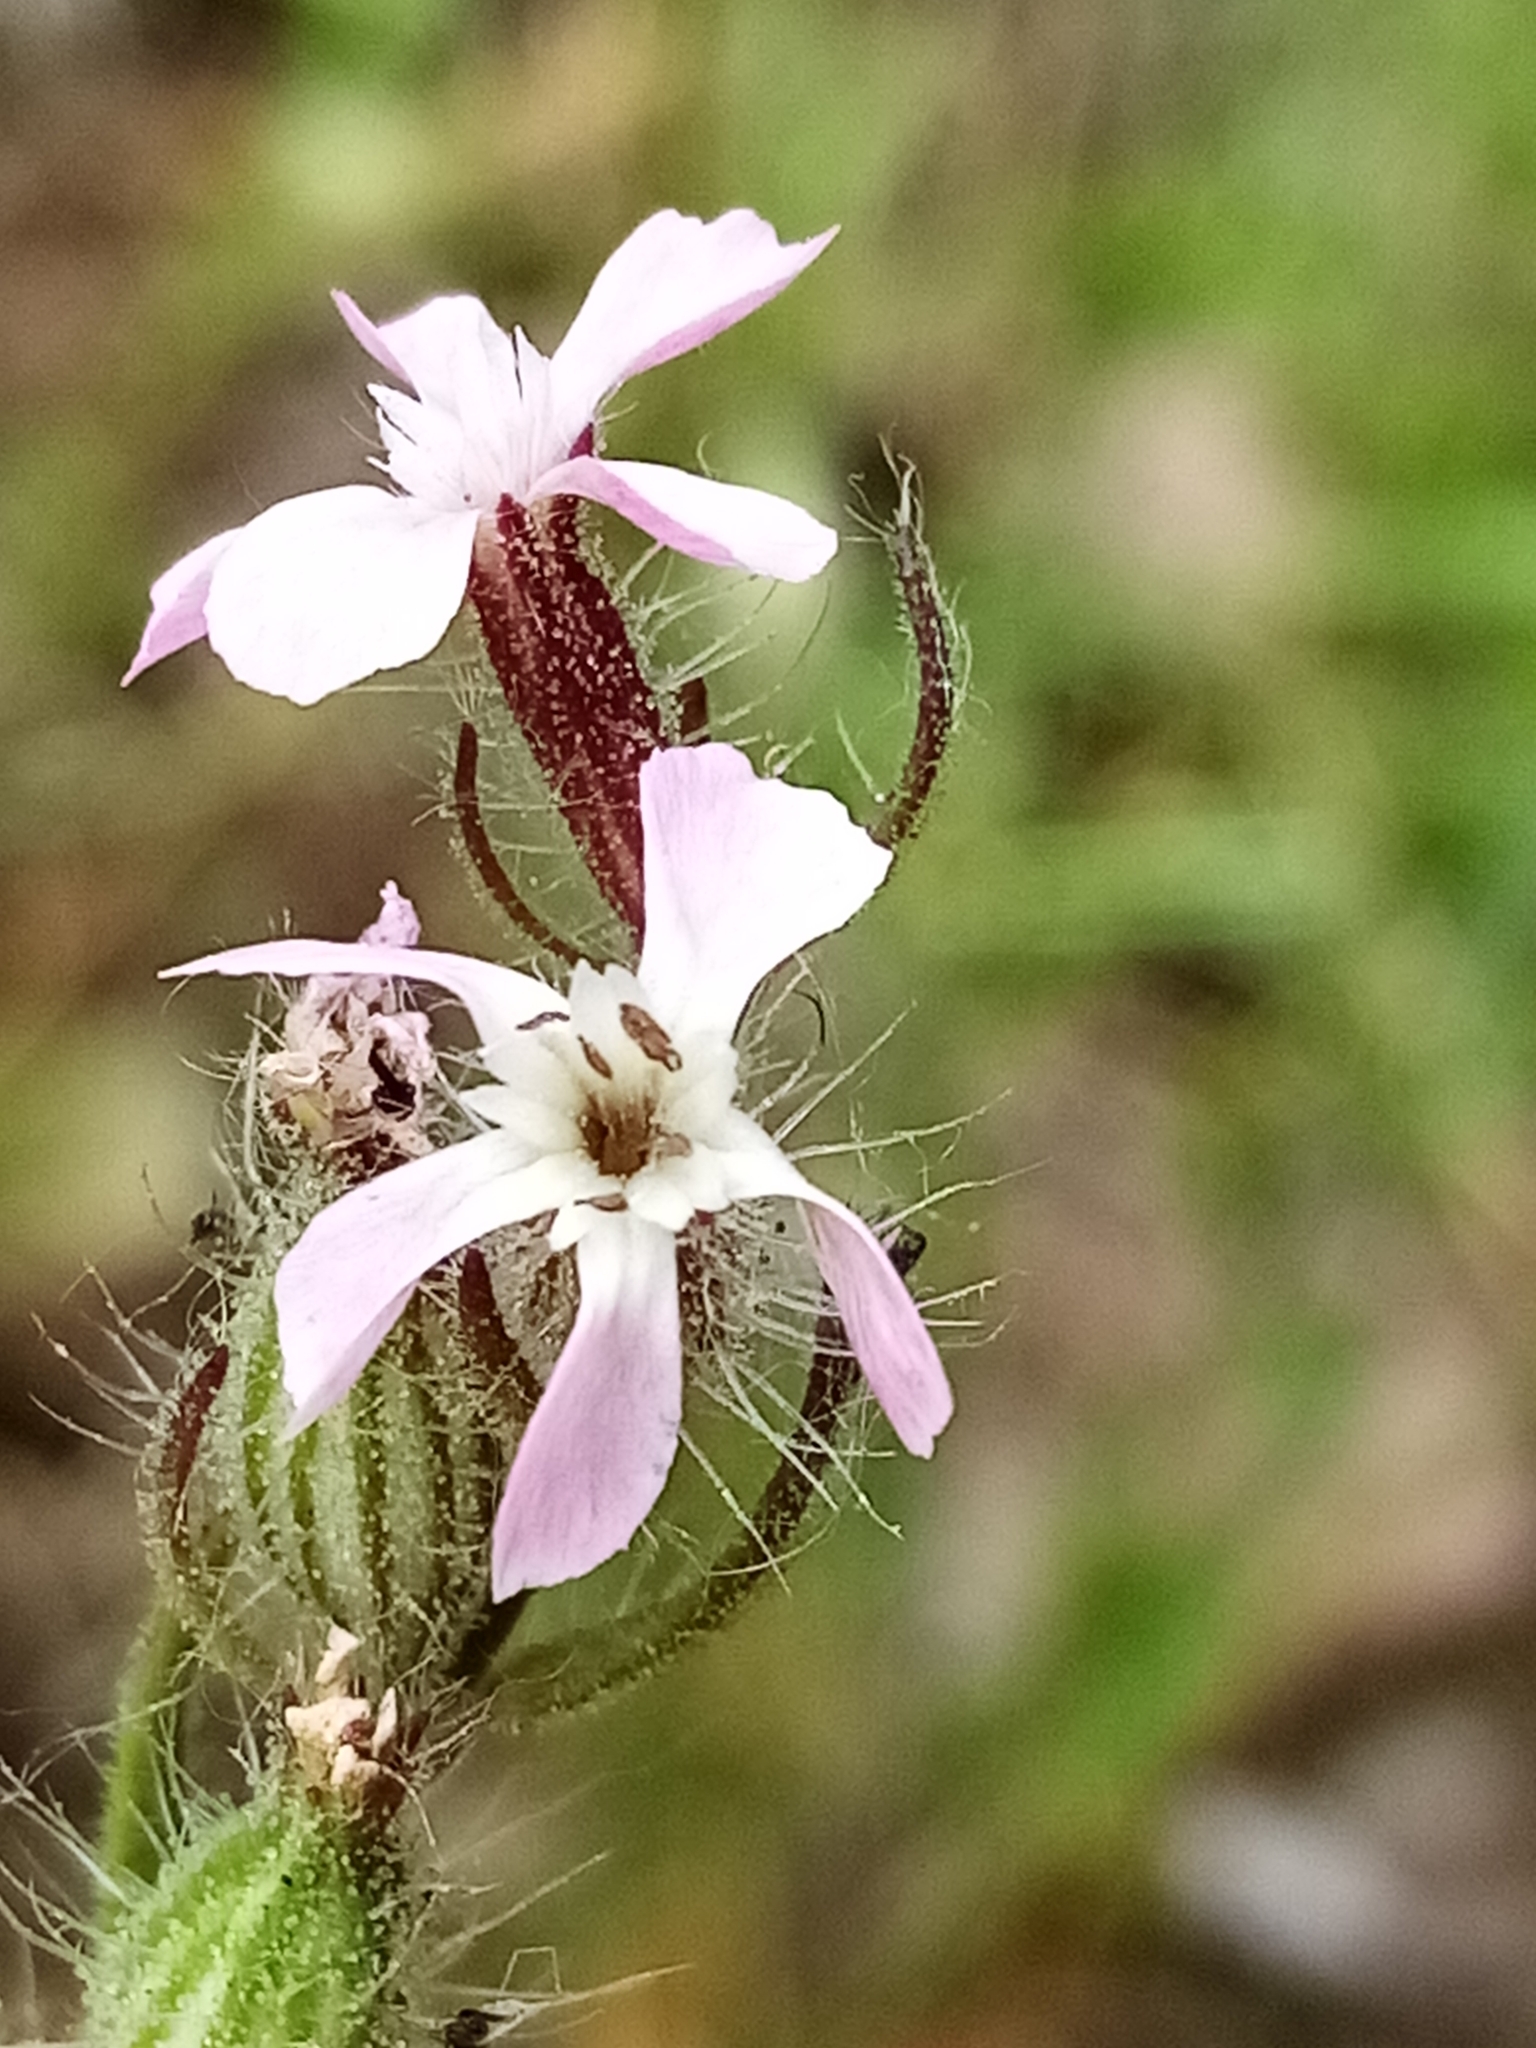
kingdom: Plantae
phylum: Tracheophyta
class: Magnoliopsida
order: Caryophyllales
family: Caryophyllaceae
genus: Silene
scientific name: Silene gallica
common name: Small-flowered catchfly
